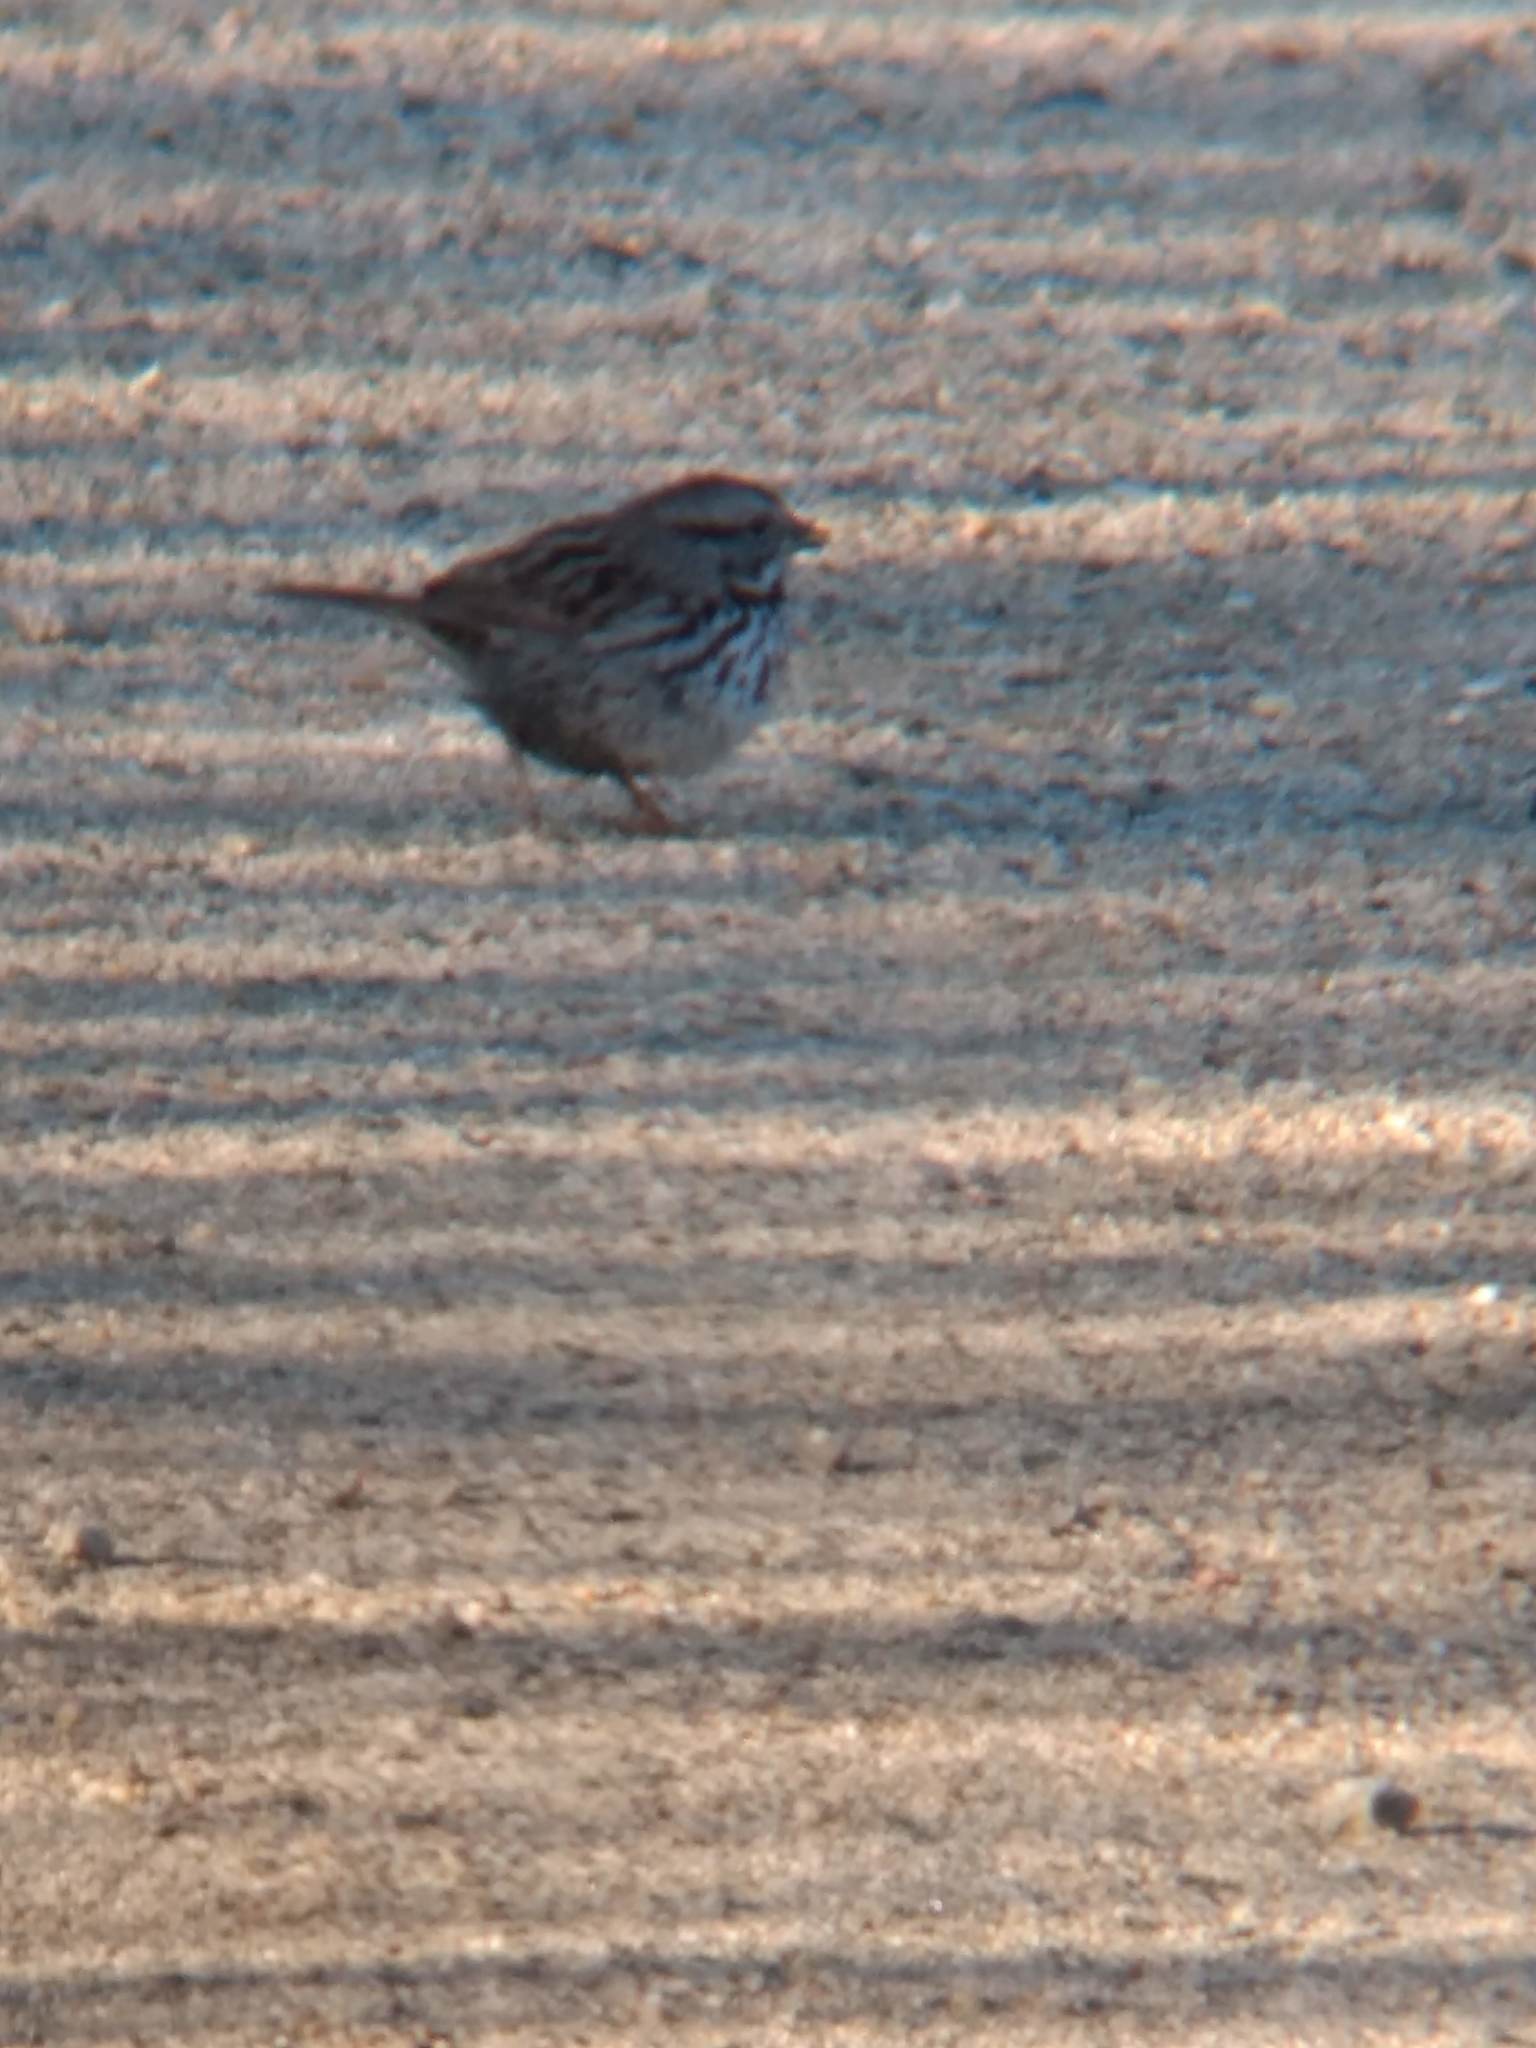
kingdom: Animalia
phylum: Chordata
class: Aves
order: Passeriformes
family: Passerellidae
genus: Melospiza
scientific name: Melospiza melodia
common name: Song sparrow
